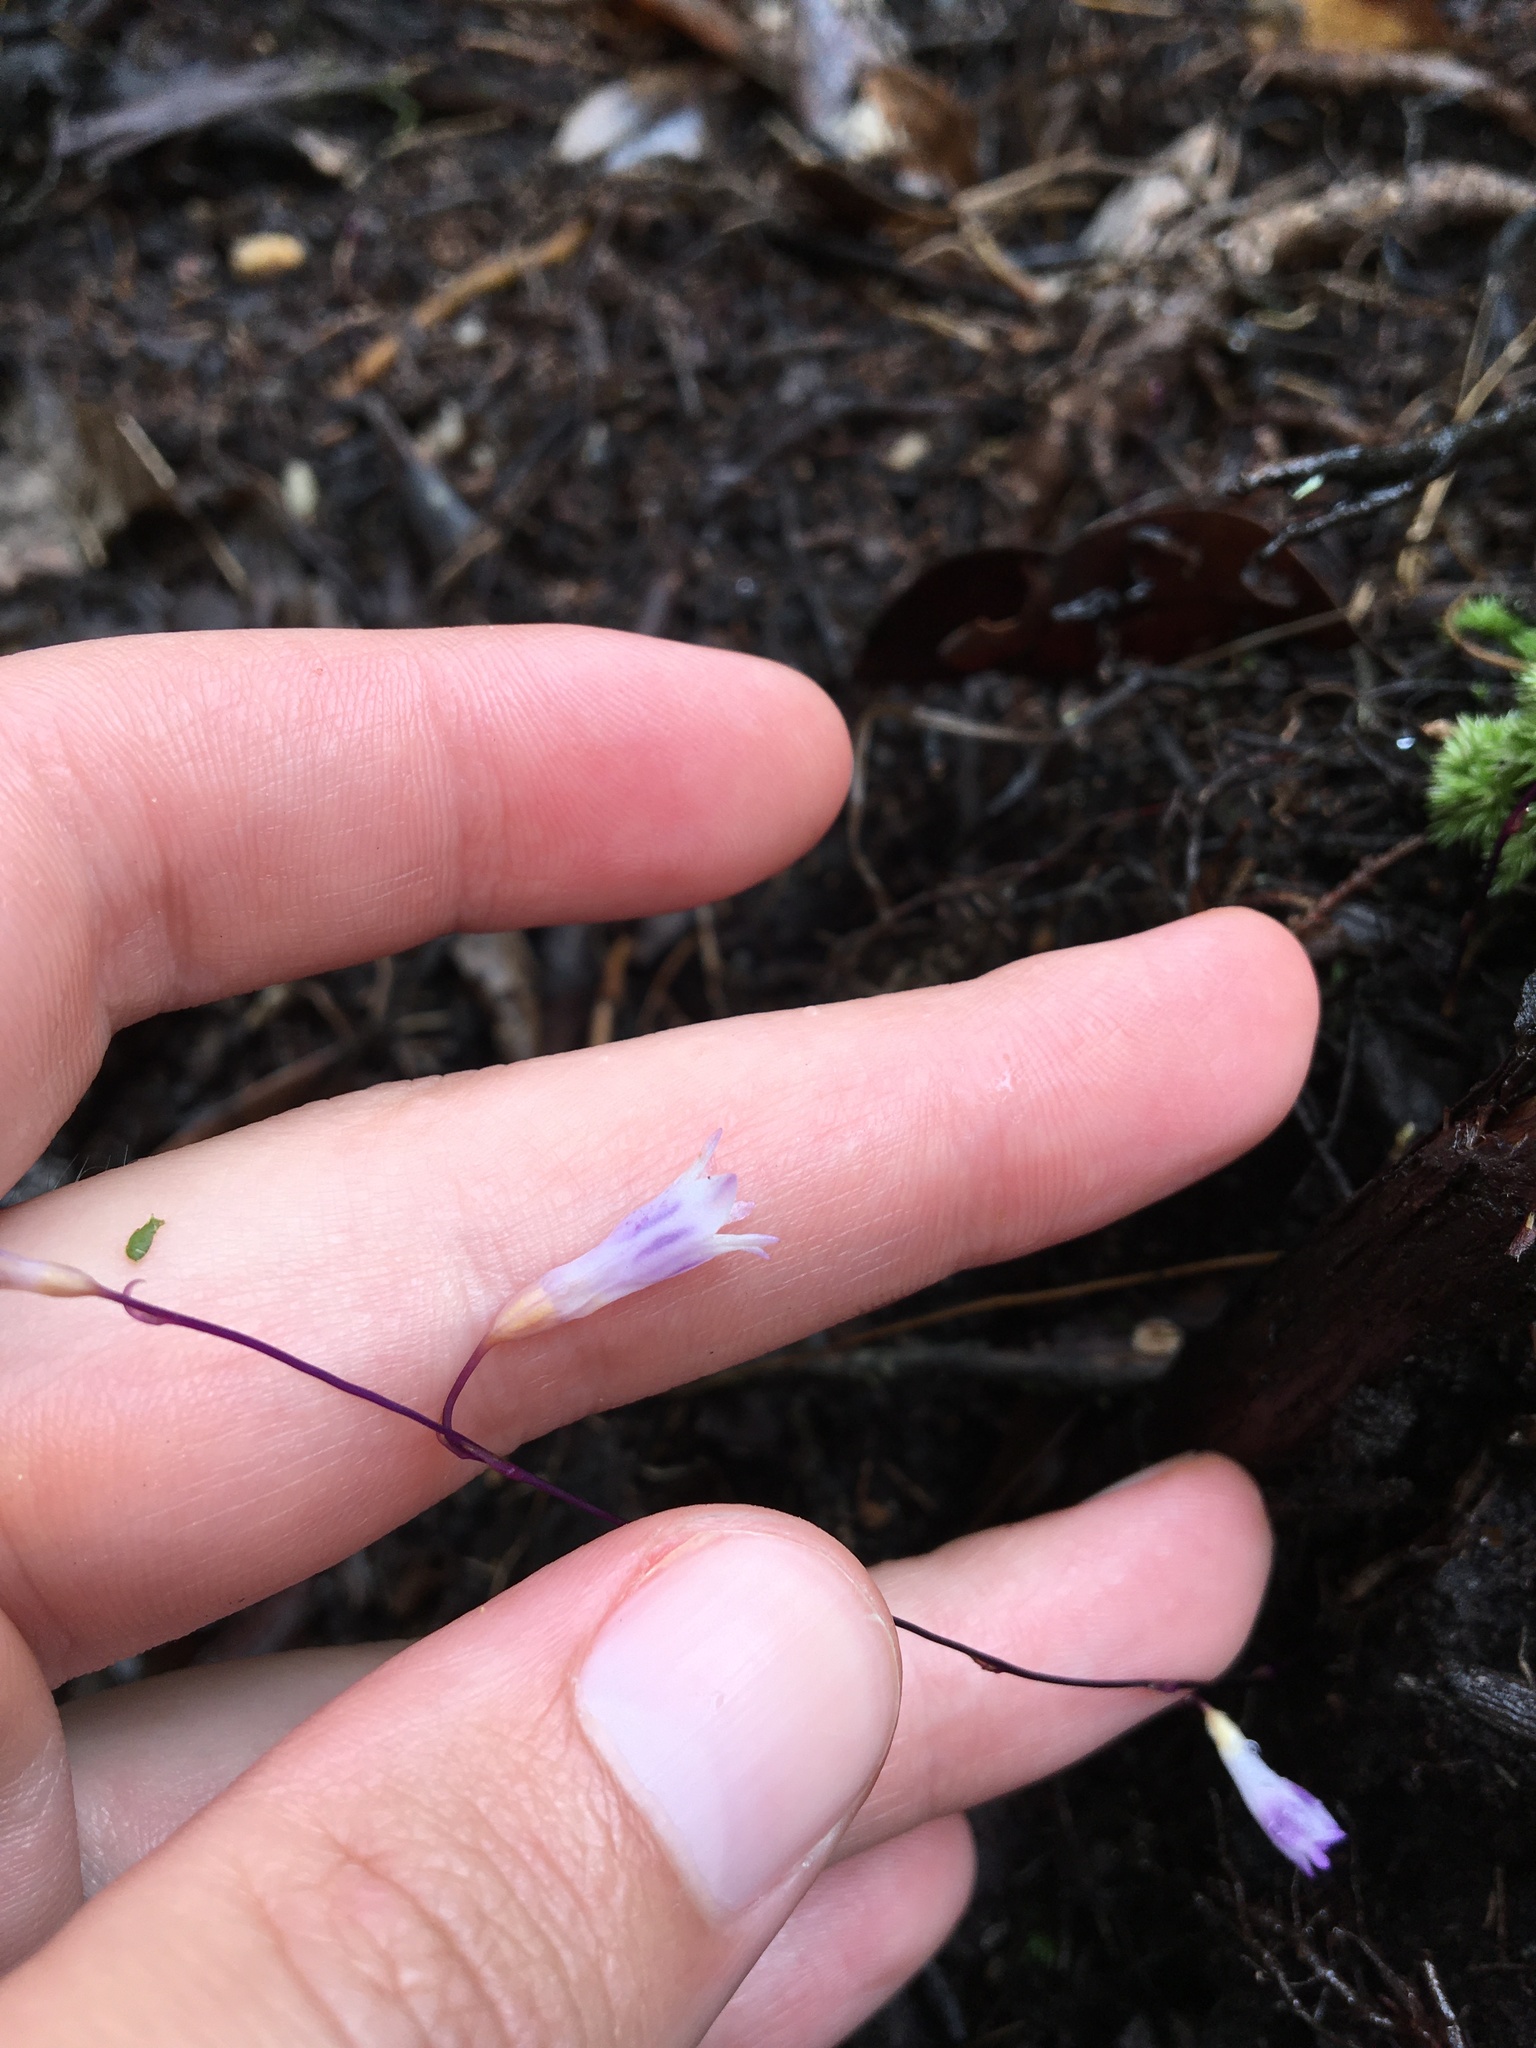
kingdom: Plantae
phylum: Tracheophyta
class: Liliopsida
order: Dioscoreales
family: Burmanniaceae
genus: Apteria
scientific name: Apteria aphylla
